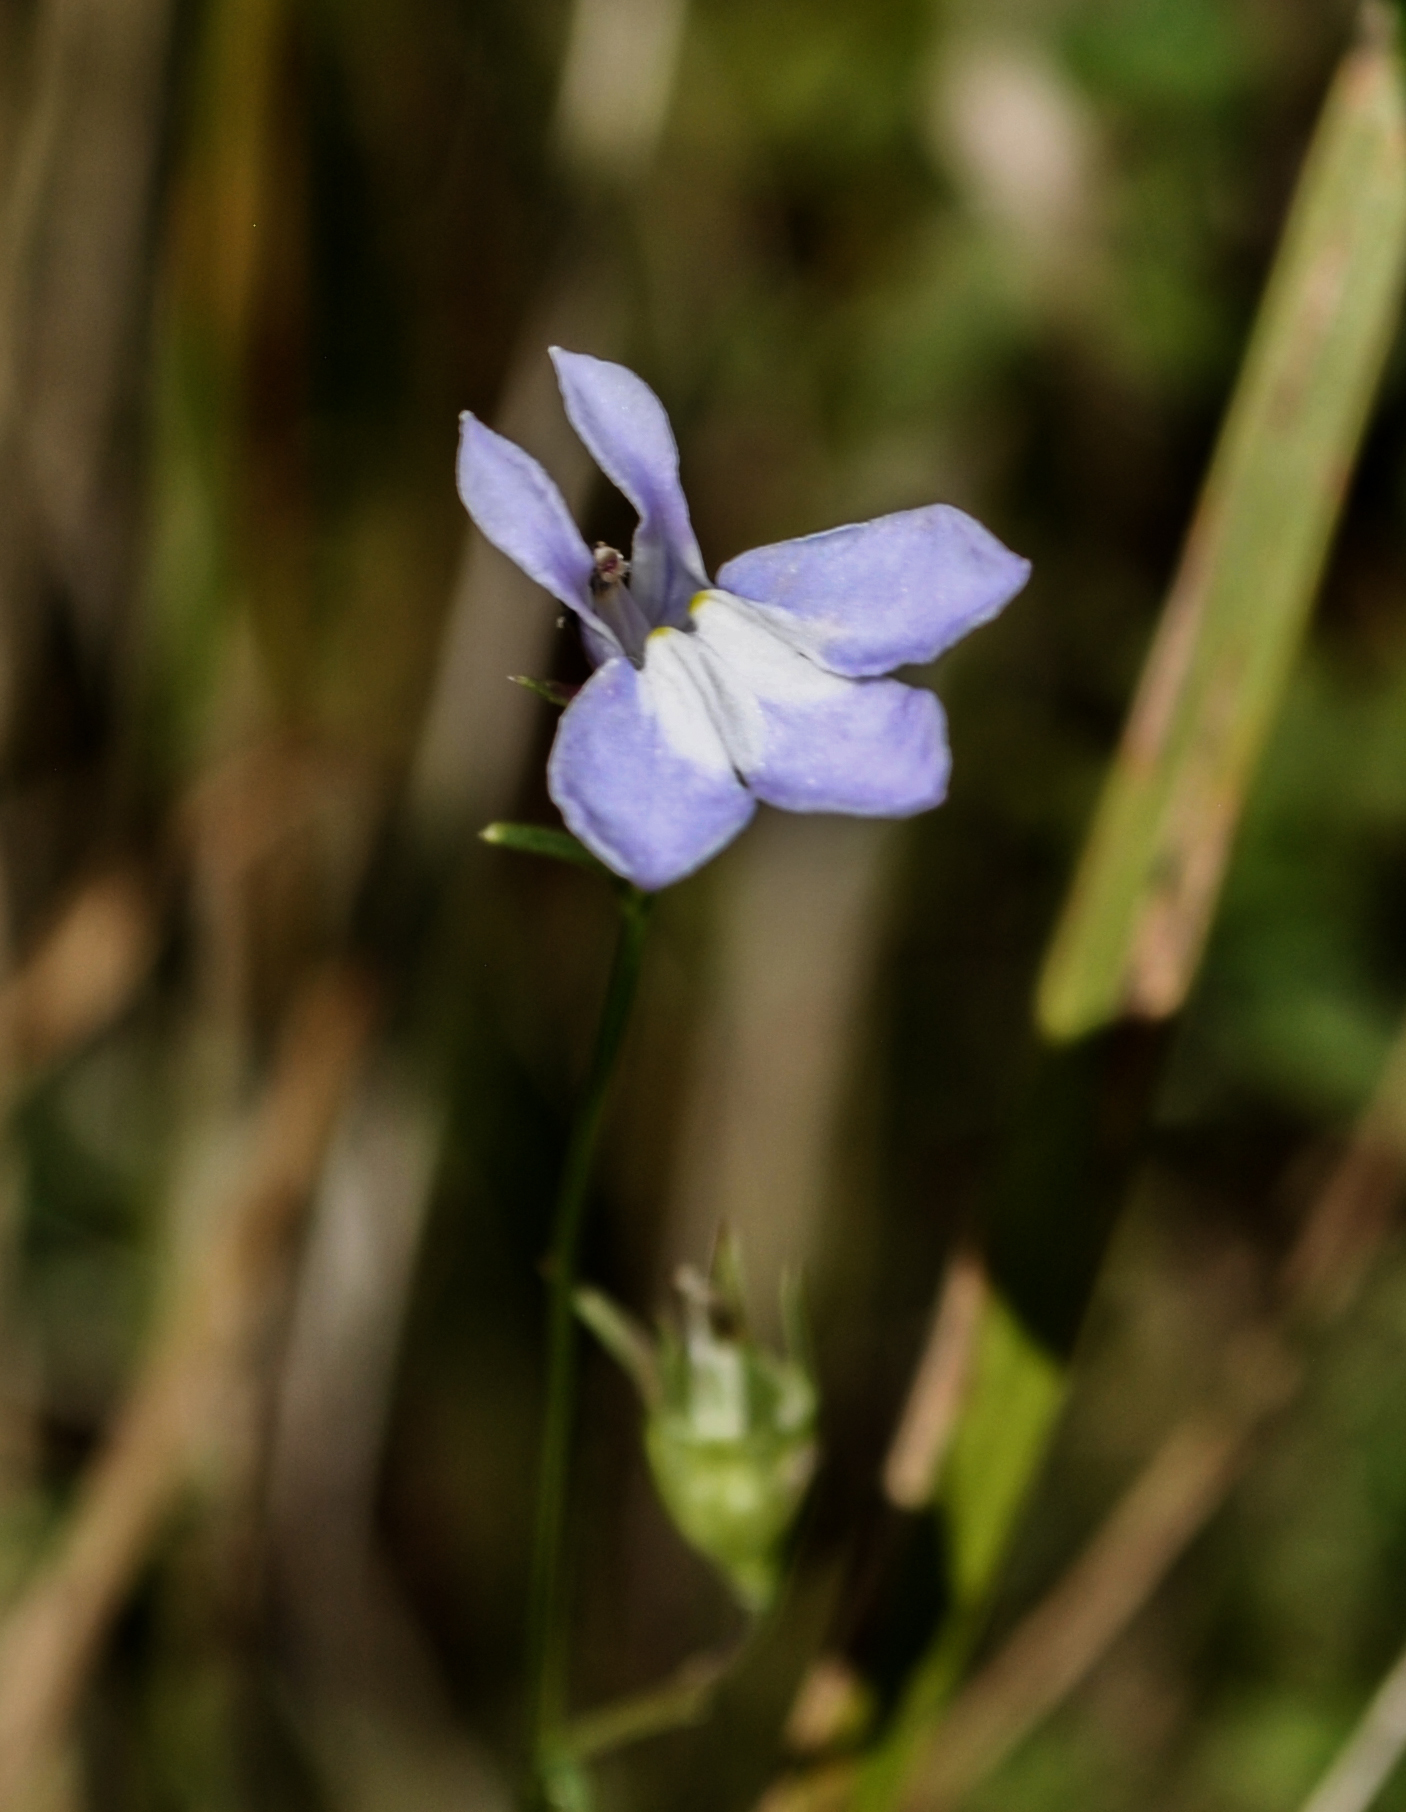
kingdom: Plantae
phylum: Tracheophyta
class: Magnoliopsida
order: Asterales
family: Campanulaceae
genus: Lobelia
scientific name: Lobelia kalmii
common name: Kalm's lobelia
